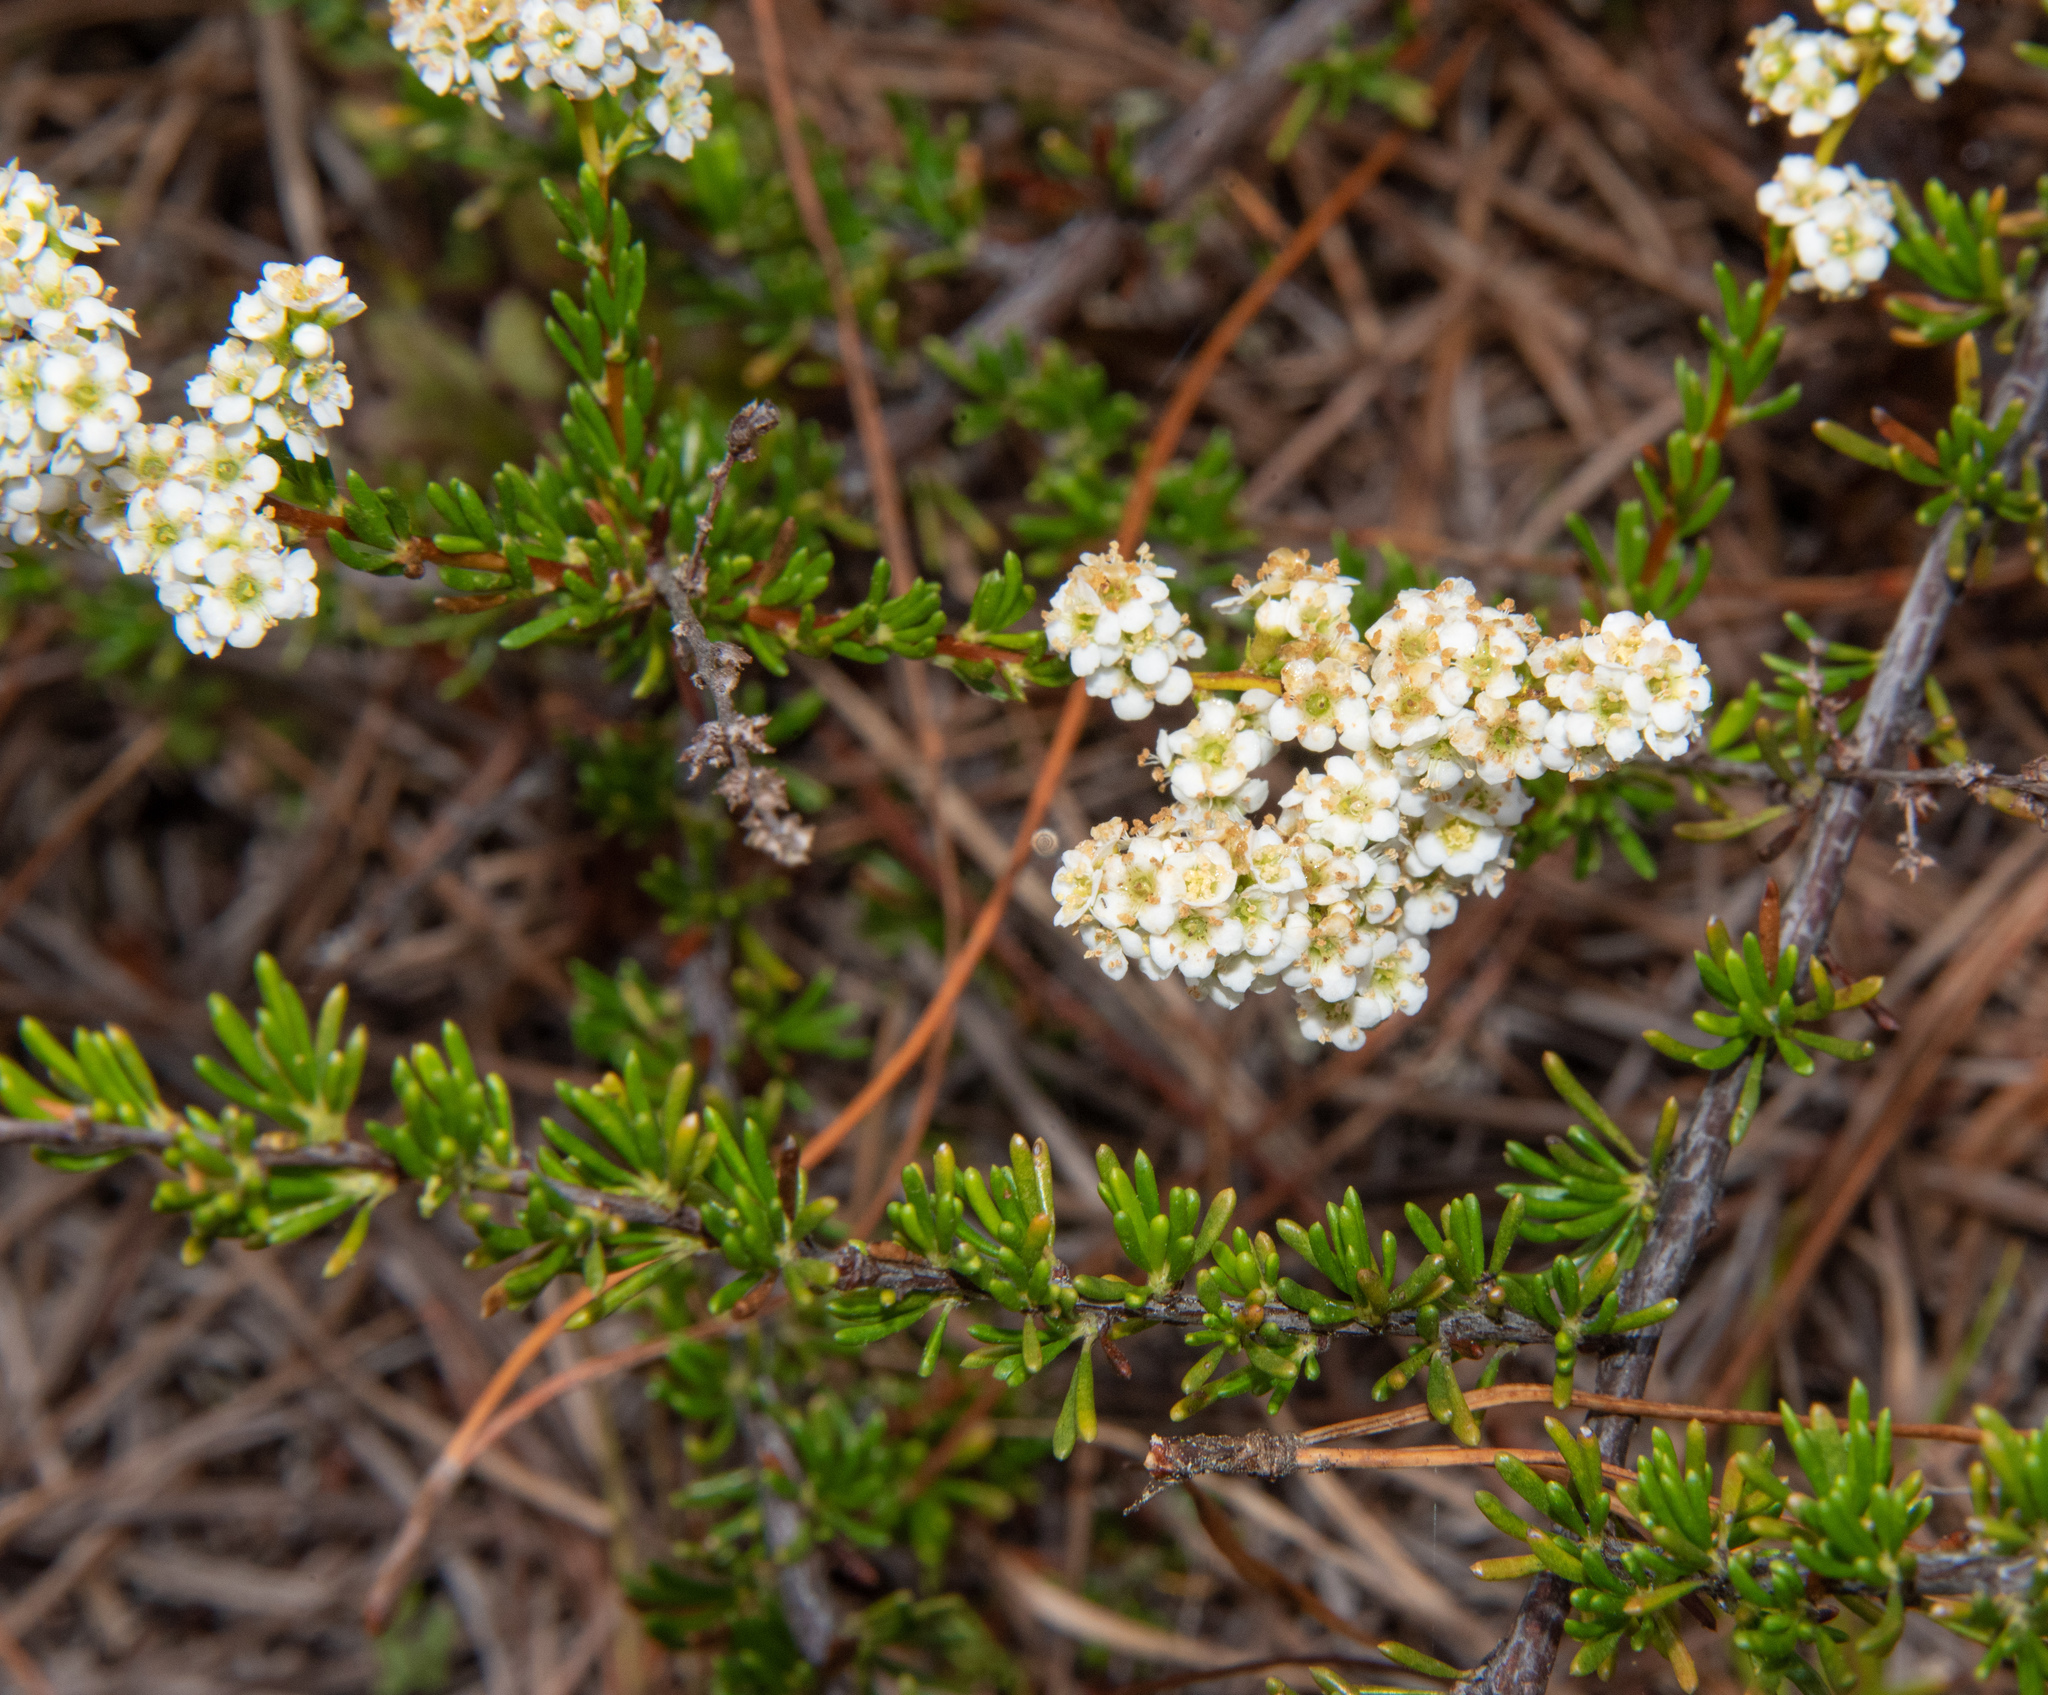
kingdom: Plantae
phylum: Tracheophyta
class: Magnoliopsida
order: Rosales
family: Rosaceae
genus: Adenostoma
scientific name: Adenostoma fasciculatum
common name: Chamise
